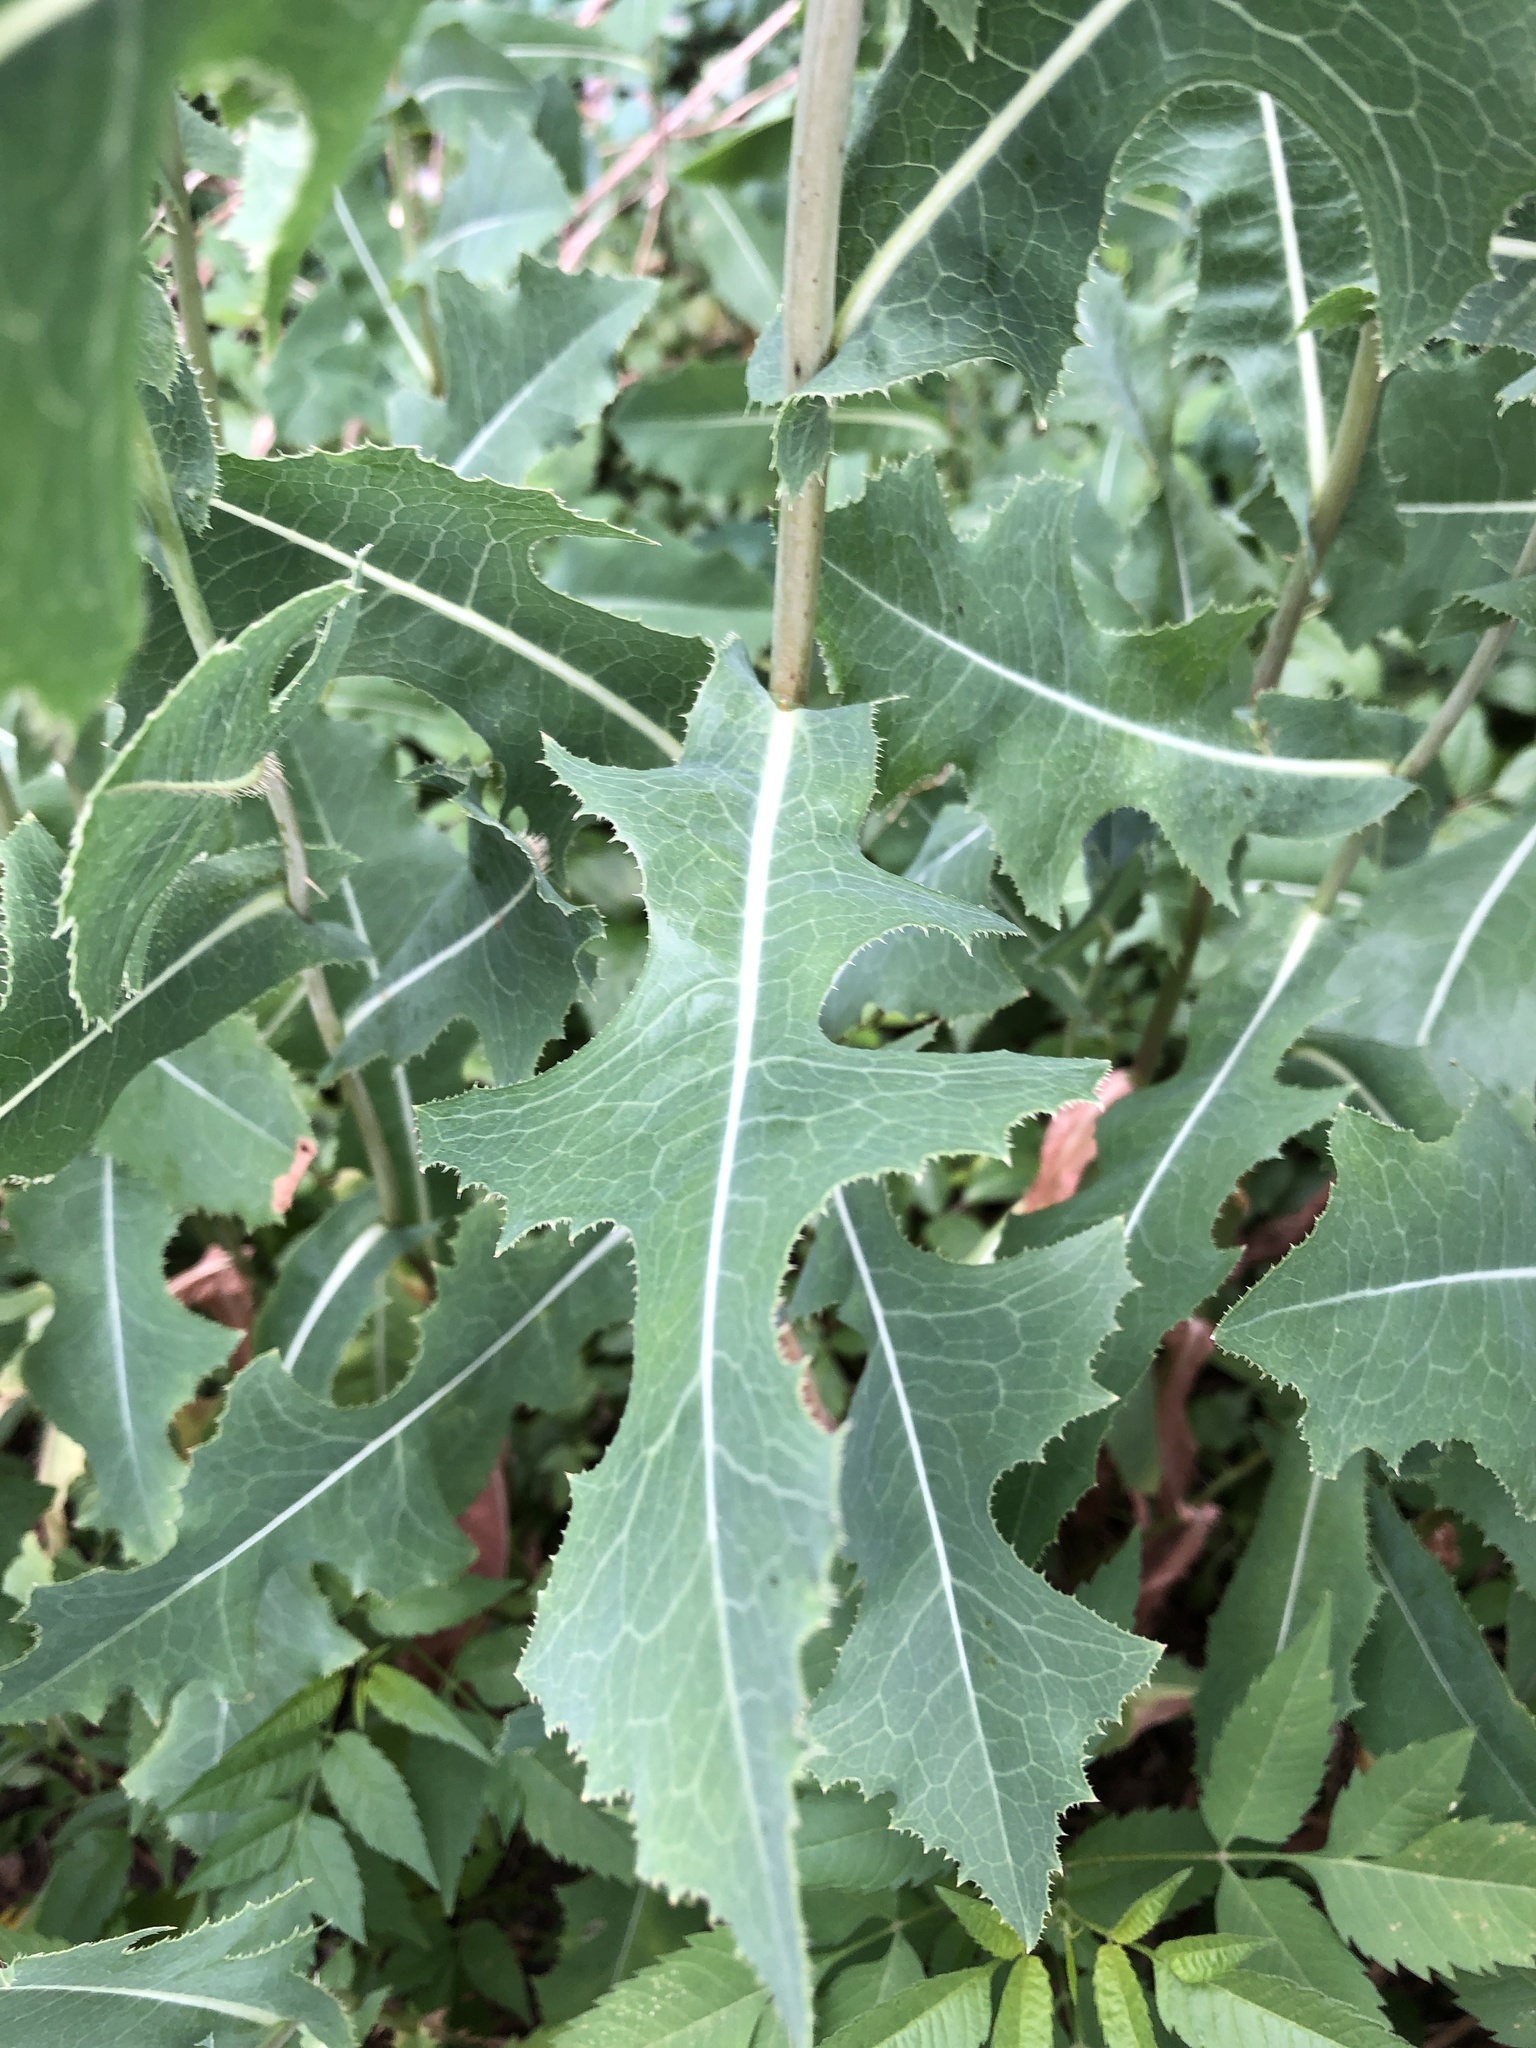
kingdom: Plantae
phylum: Tracheophyta
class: Magnoliopsida
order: Asterales
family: Asteraceae
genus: Lactuca
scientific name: Lactuca serriola
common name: Prickly lettuce
